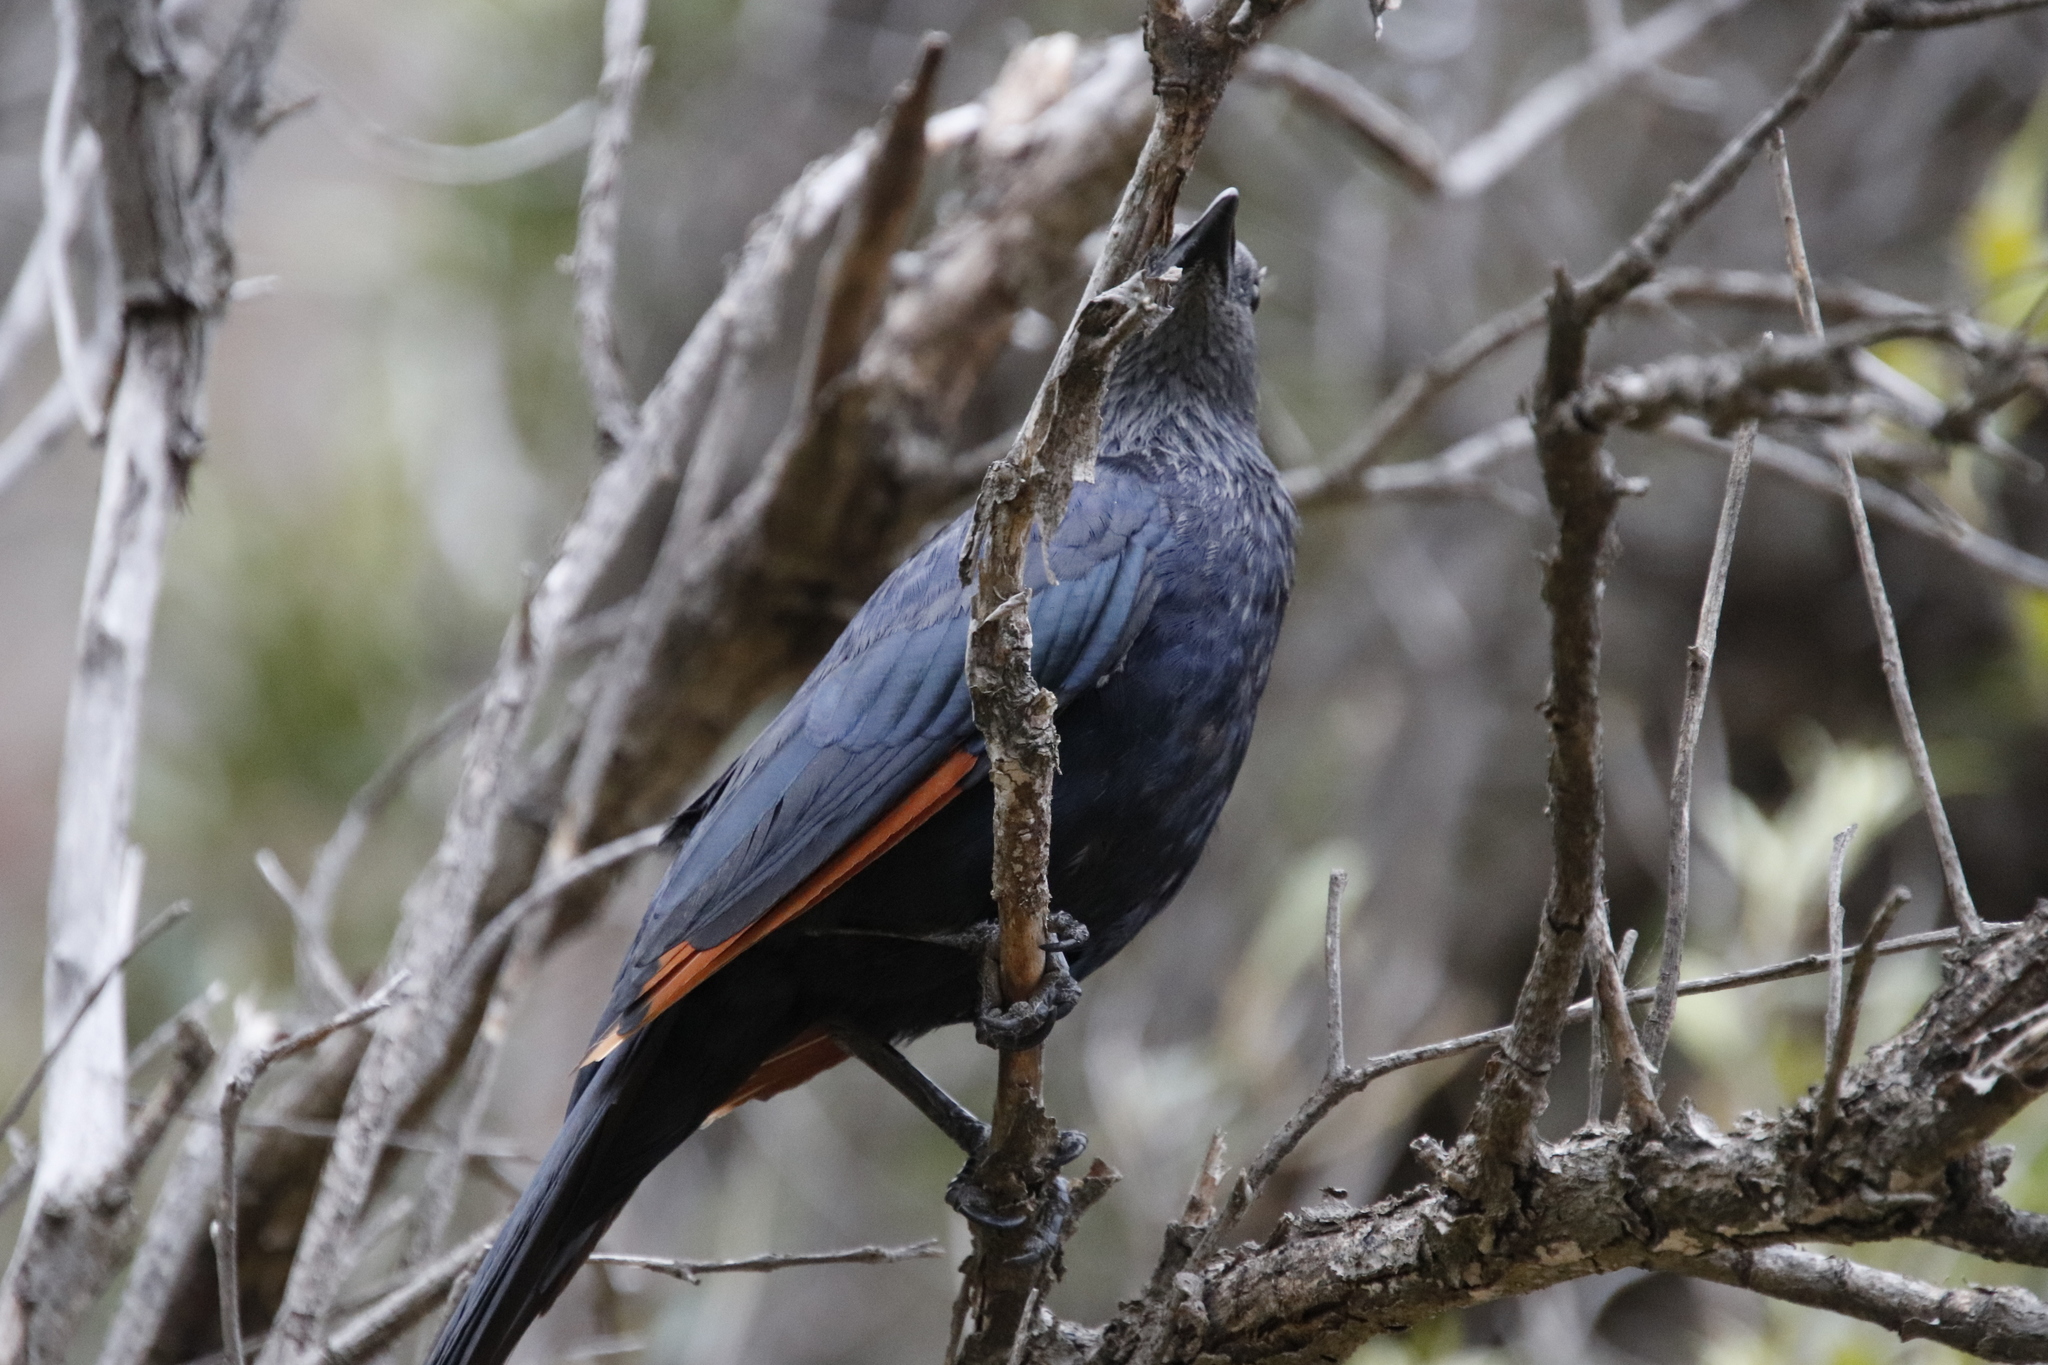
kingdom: Animalia
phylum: Chordata
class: Aves
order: Passeriformes
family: Sturnidae
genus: Onychognathus
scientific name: Onychognathus morio
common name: Red-winged starling
